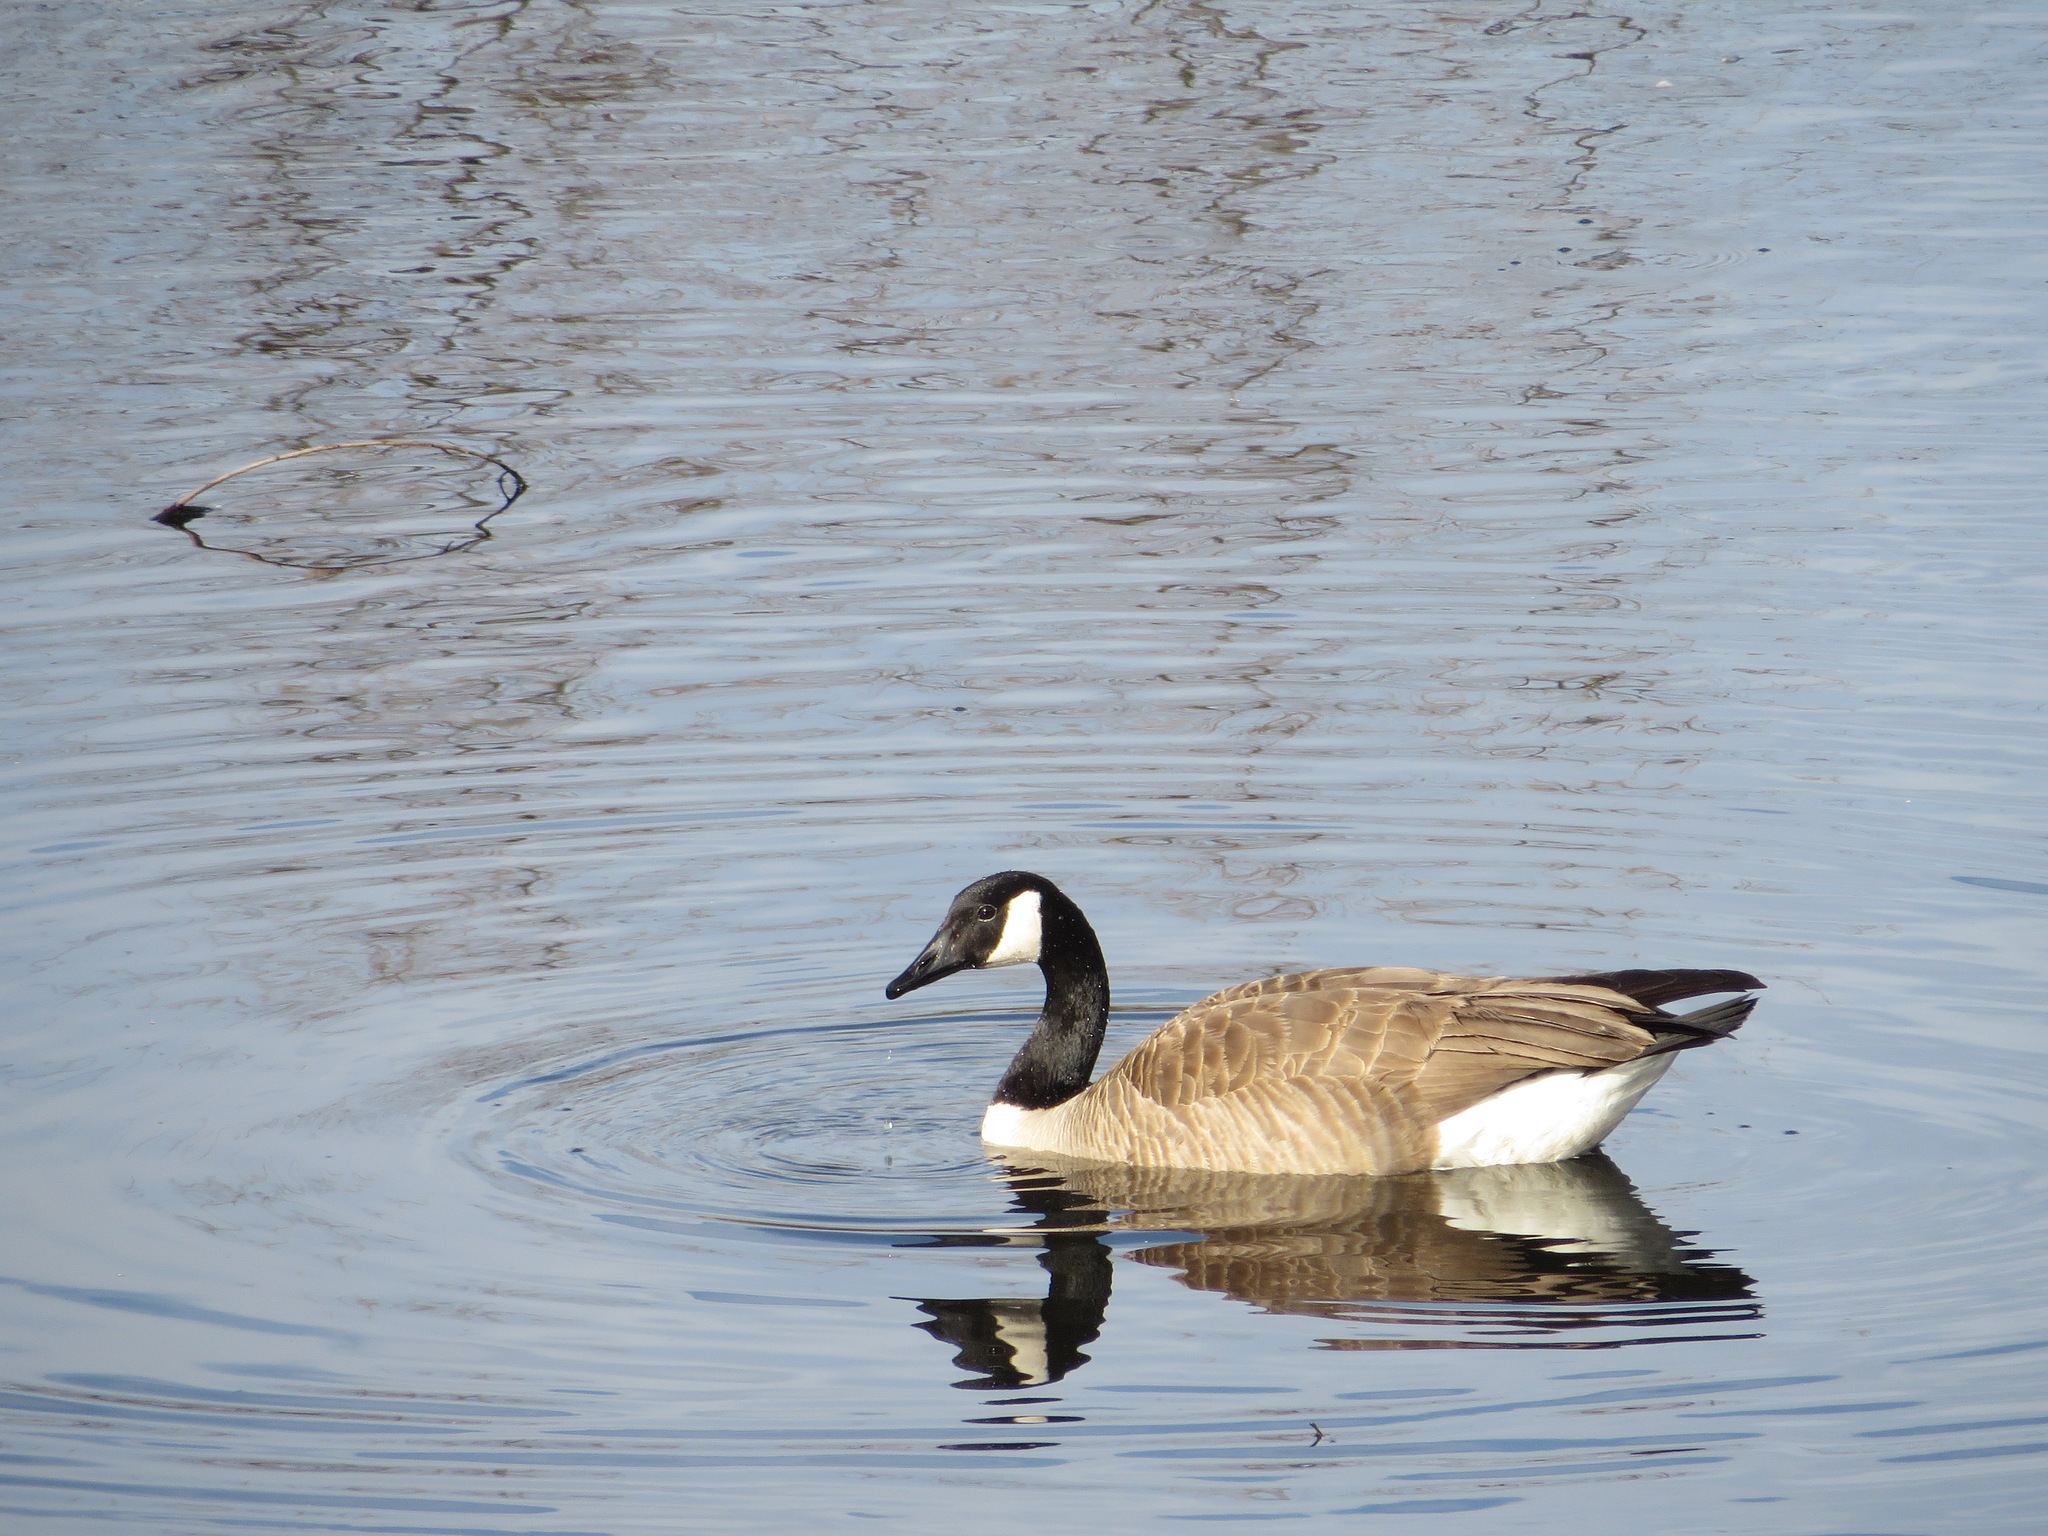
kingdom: Animalia
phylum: Chordata
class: Aves
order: Anseriformes
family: Anatidae
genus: Branta
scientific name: Branta canadensis
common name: Canada goose
